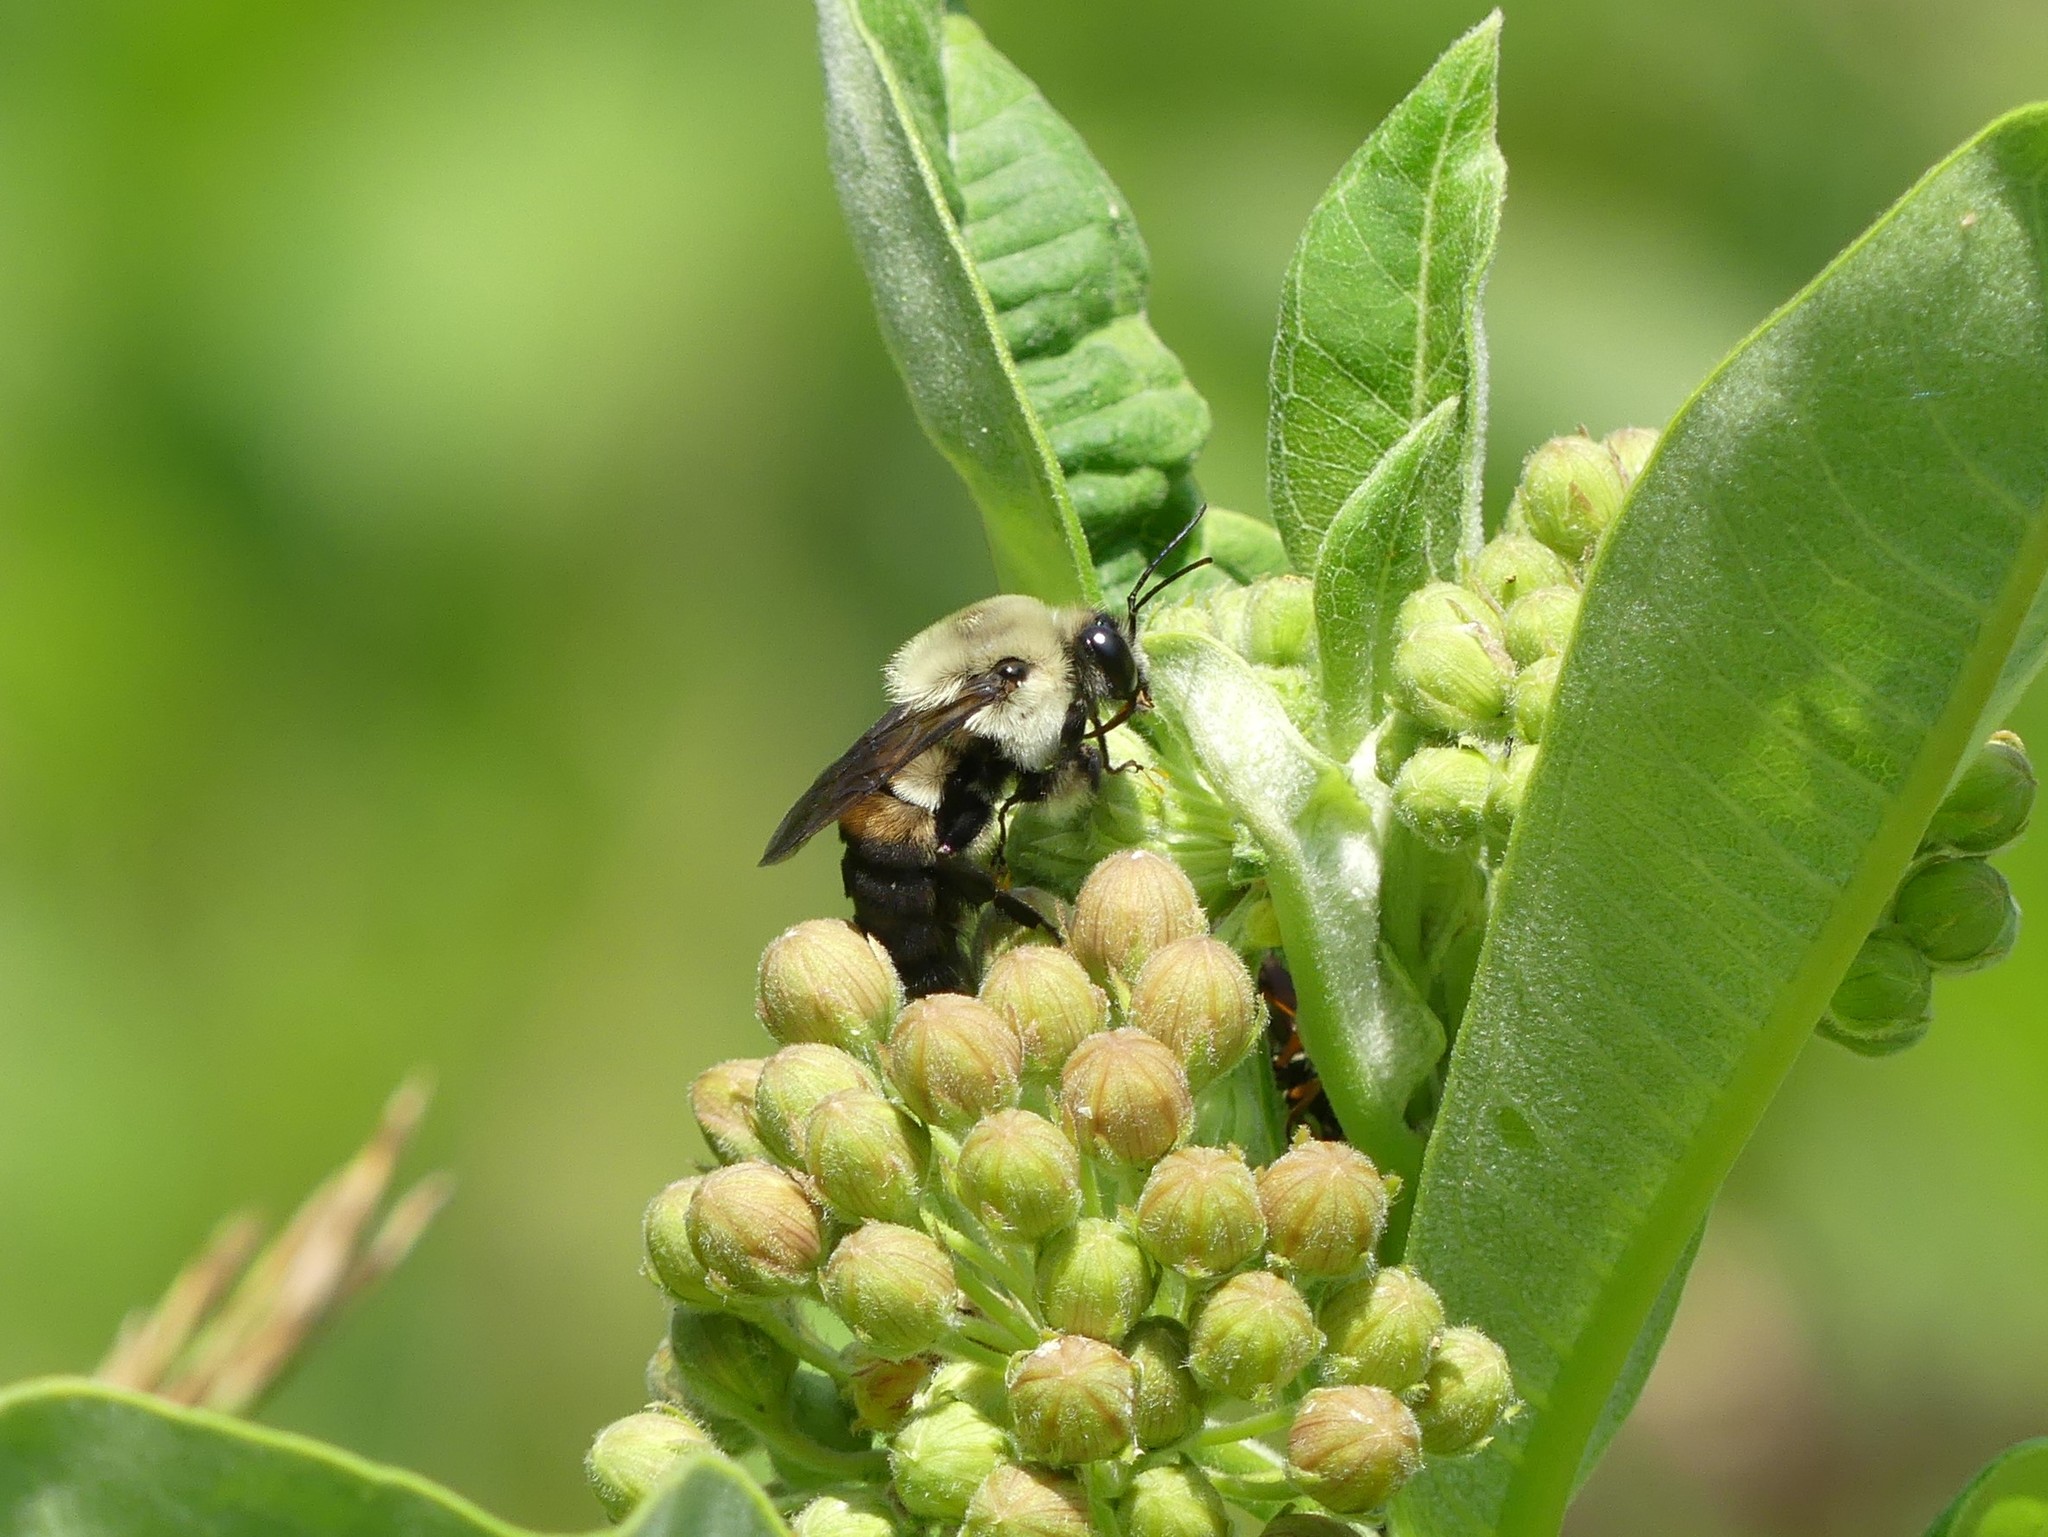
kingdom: Animalia
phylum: Arthropoda
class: Insecta
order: Hymenoptera
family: Apidae
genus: Bombus
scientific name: Bombus griseocollis
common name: Brown-belted bumble bee
